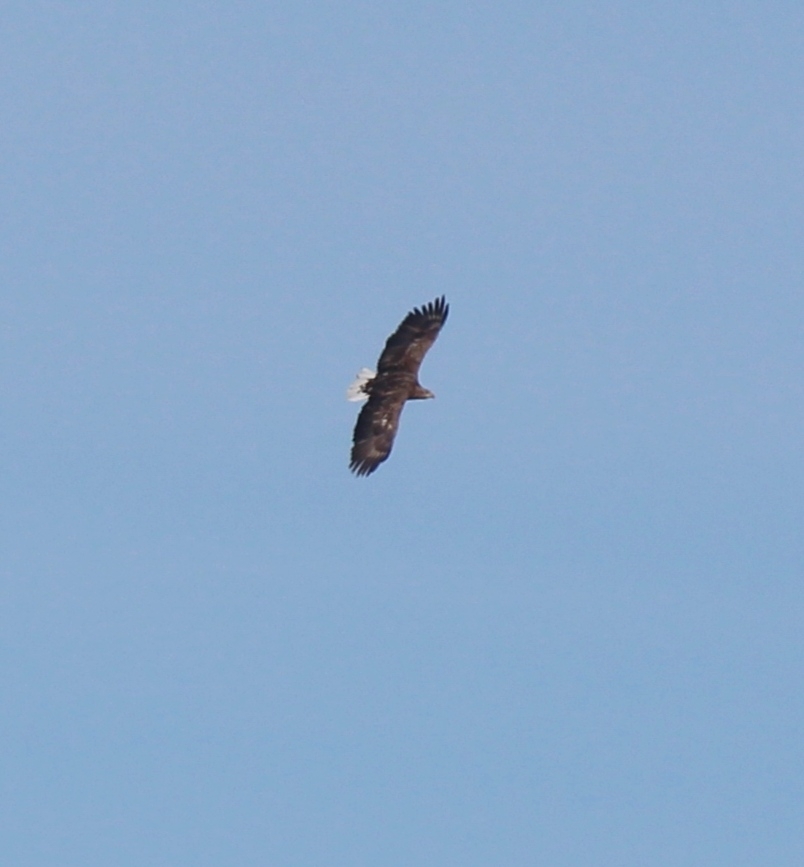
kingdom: Animalia
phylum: Chordata
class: Aves
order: Accipitriformes
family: Accipitridae
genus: Haliaeetus
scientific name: Haliaeetus albicilla
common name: White-tailed eagle
